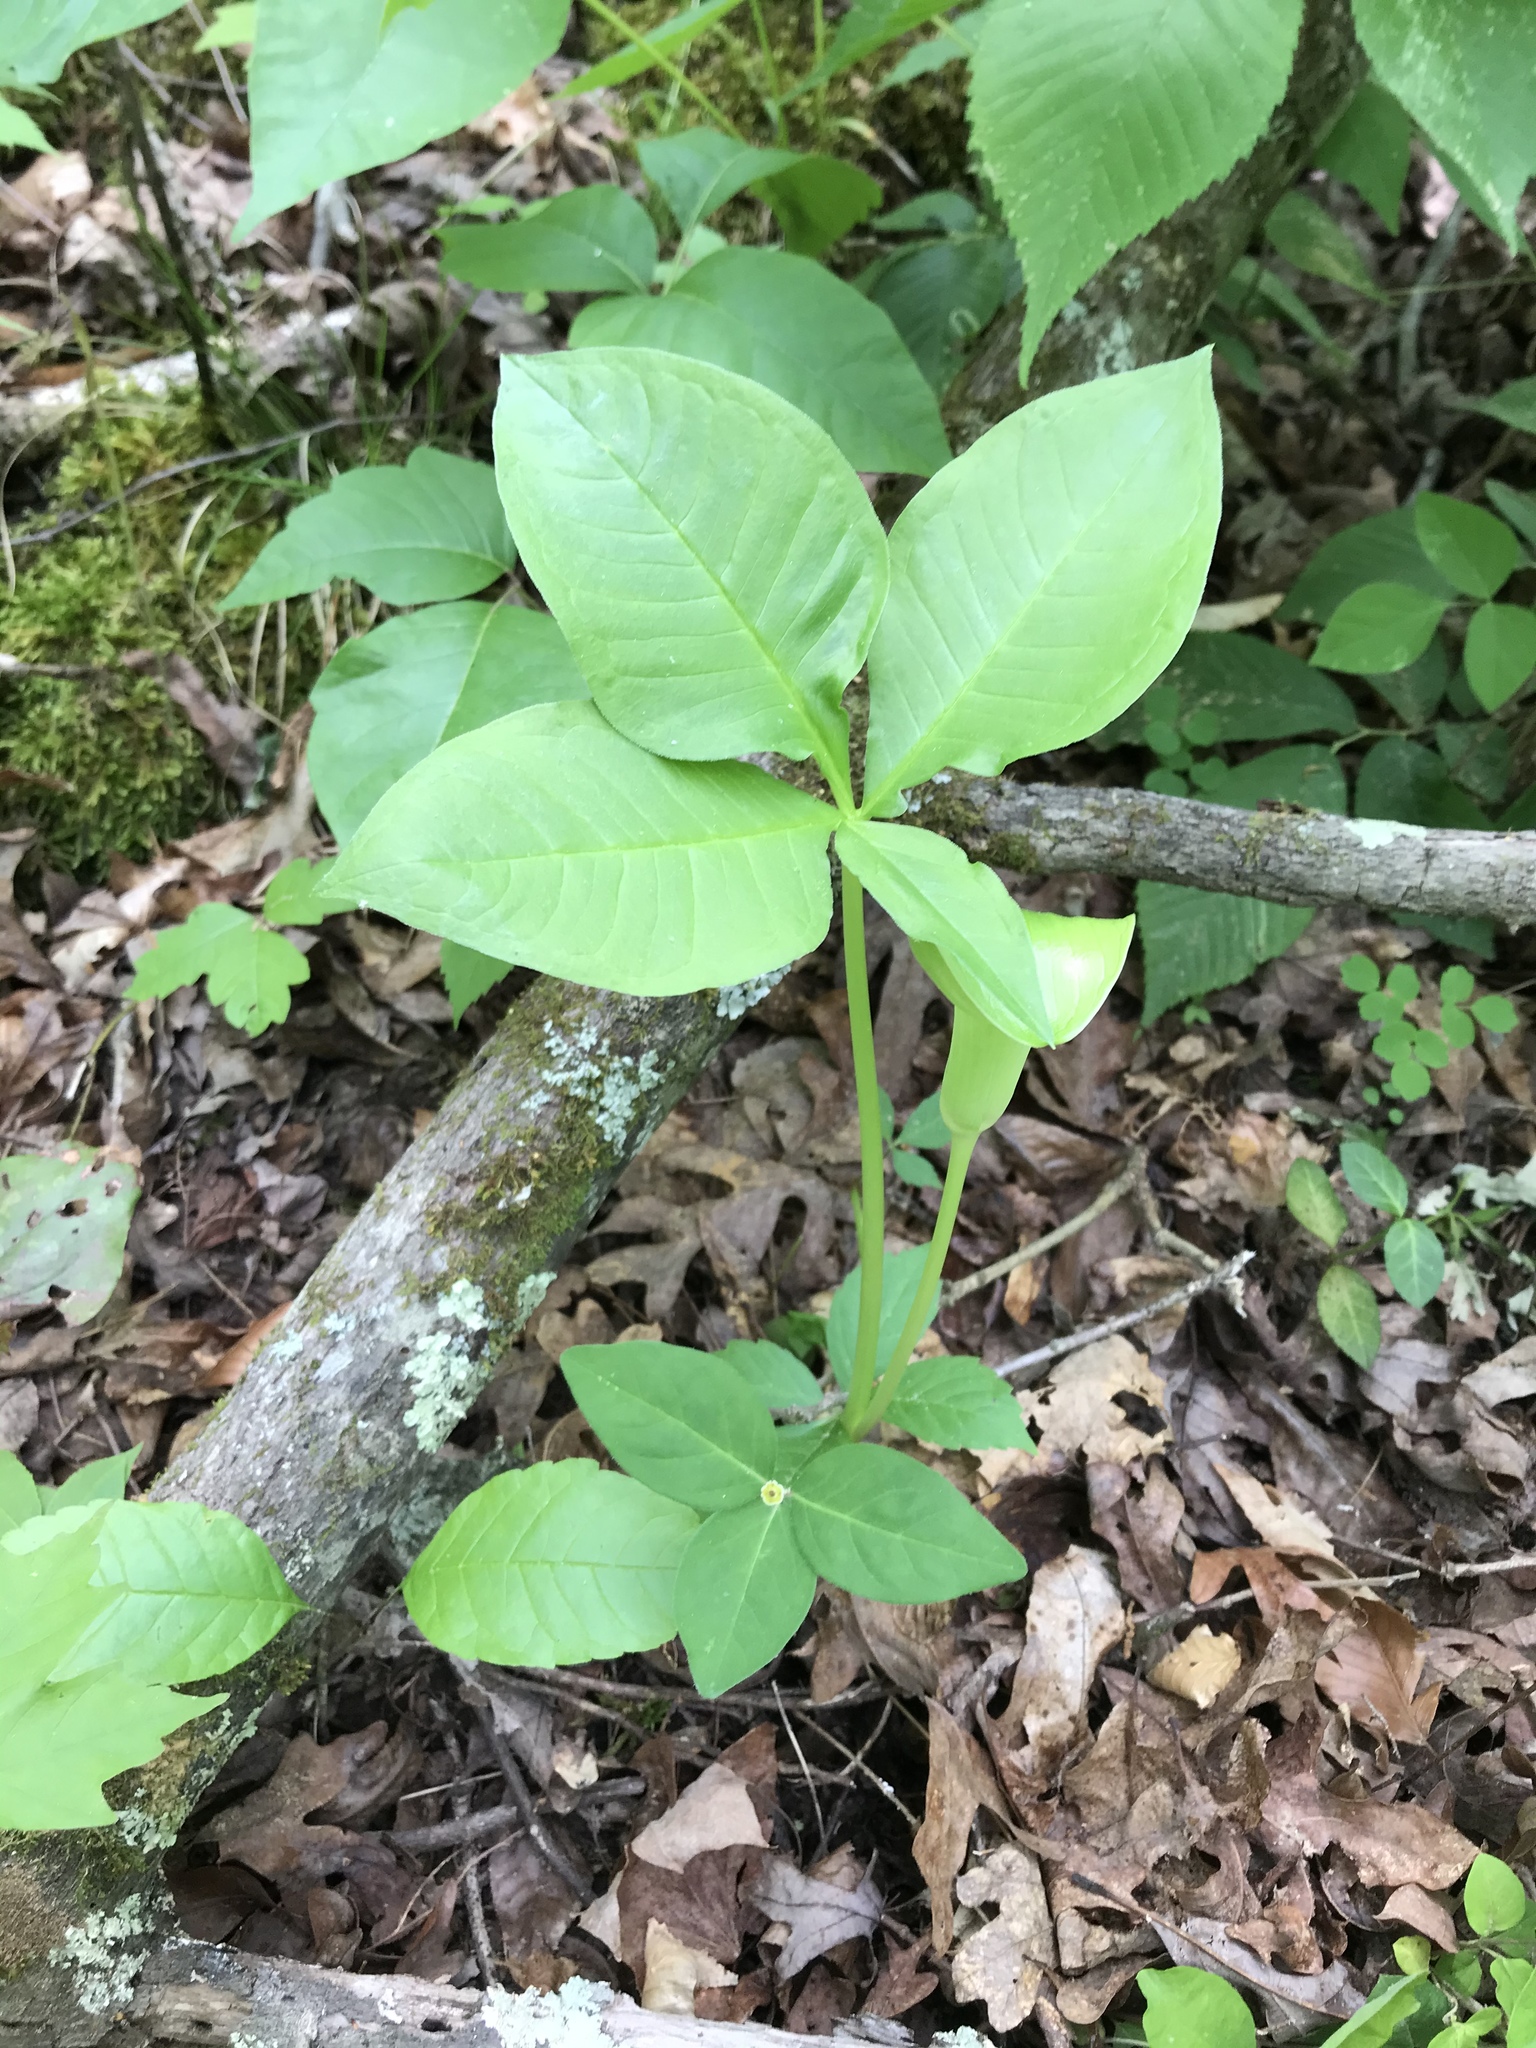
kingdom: Plantae
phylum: Tracheophyta
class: Liliopsida
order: Alismatales
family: Araceae
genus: Arisaema
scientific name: Arisaema triphyllum
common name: Jack-in-the-pulpit
